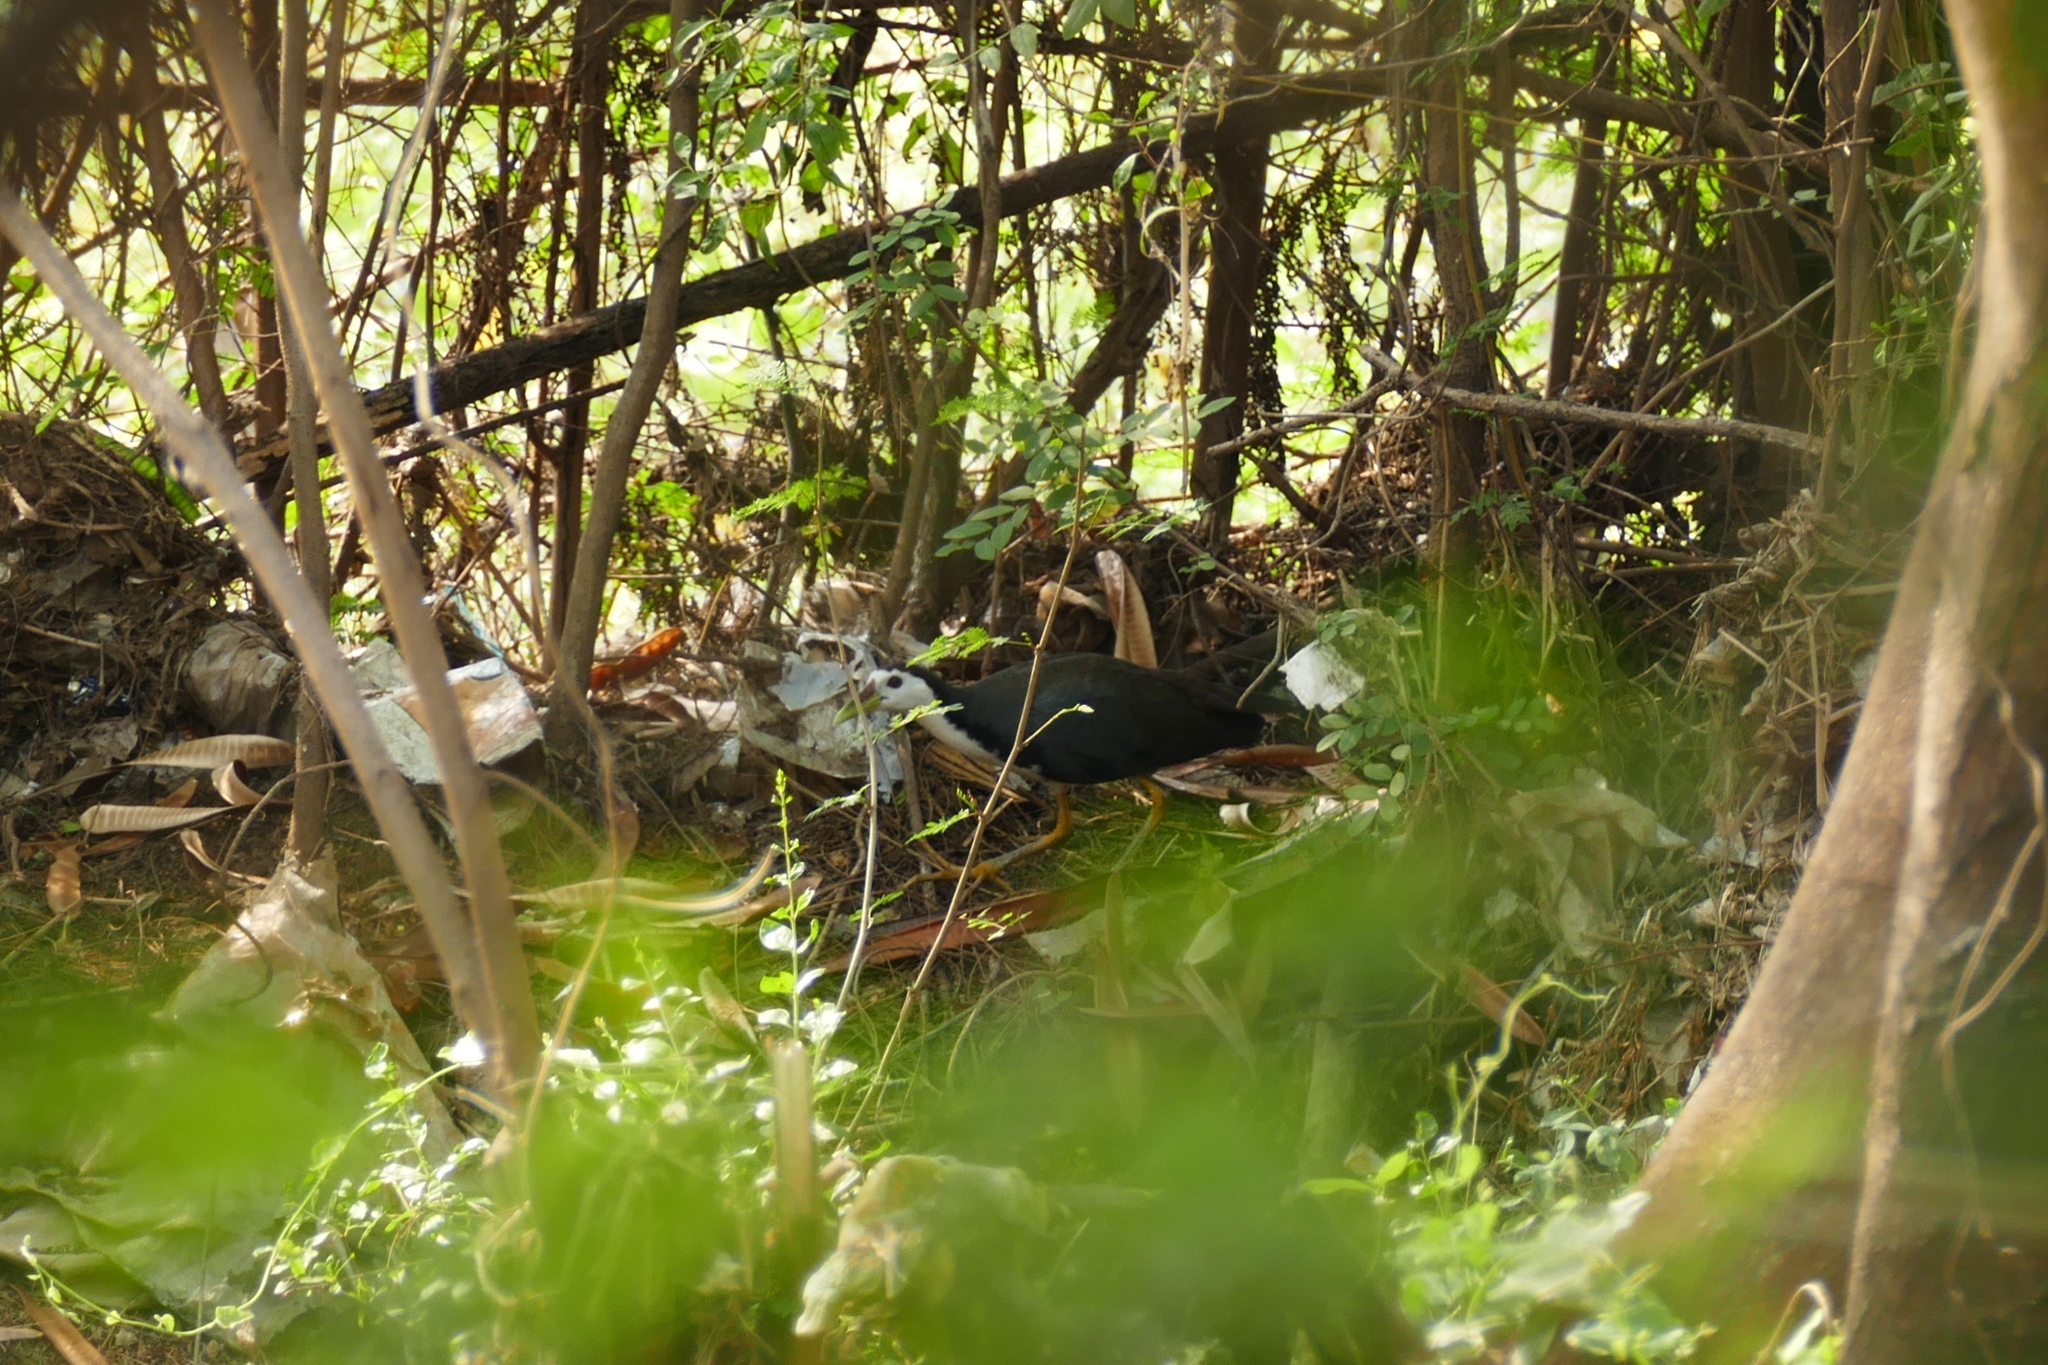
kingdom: Animalia
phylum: Chordata
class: Aves
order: Gruiformes
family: Rallidae
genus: Amaurornis
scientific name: Amaurornis phoenicurus
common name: White-breasted waterhen
